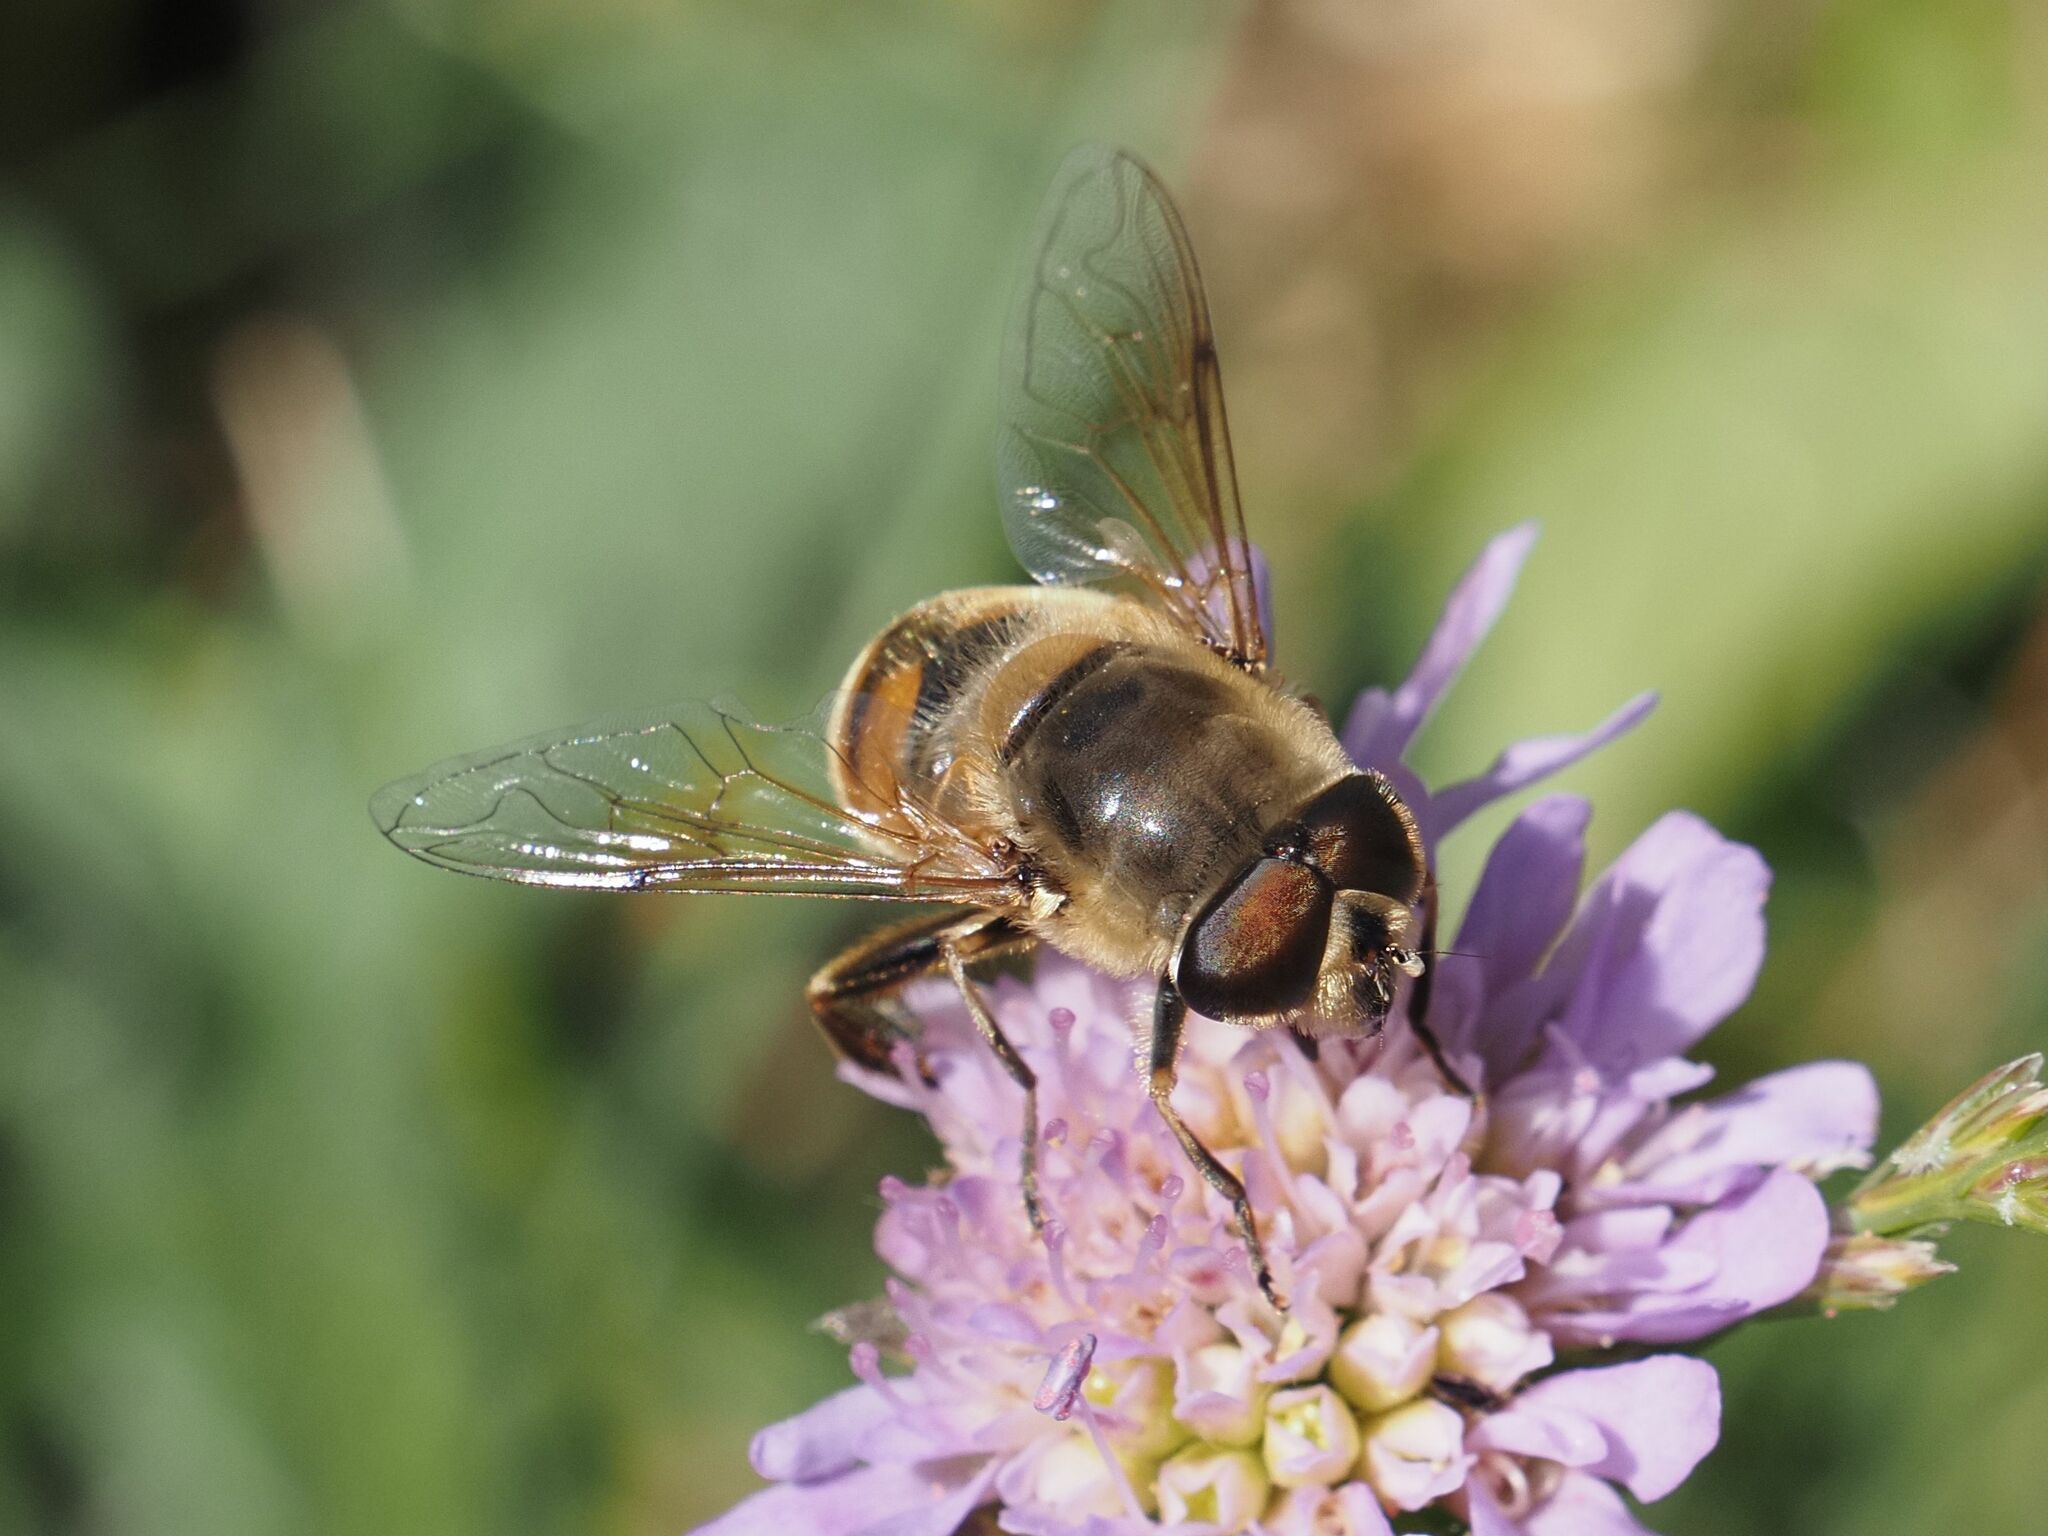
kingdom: Animalia
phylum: Arthropoda
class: Insecta
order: Diptera
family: Syrphidae
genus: Eristalis
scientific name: Eristalis tenax
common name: Drone fly
